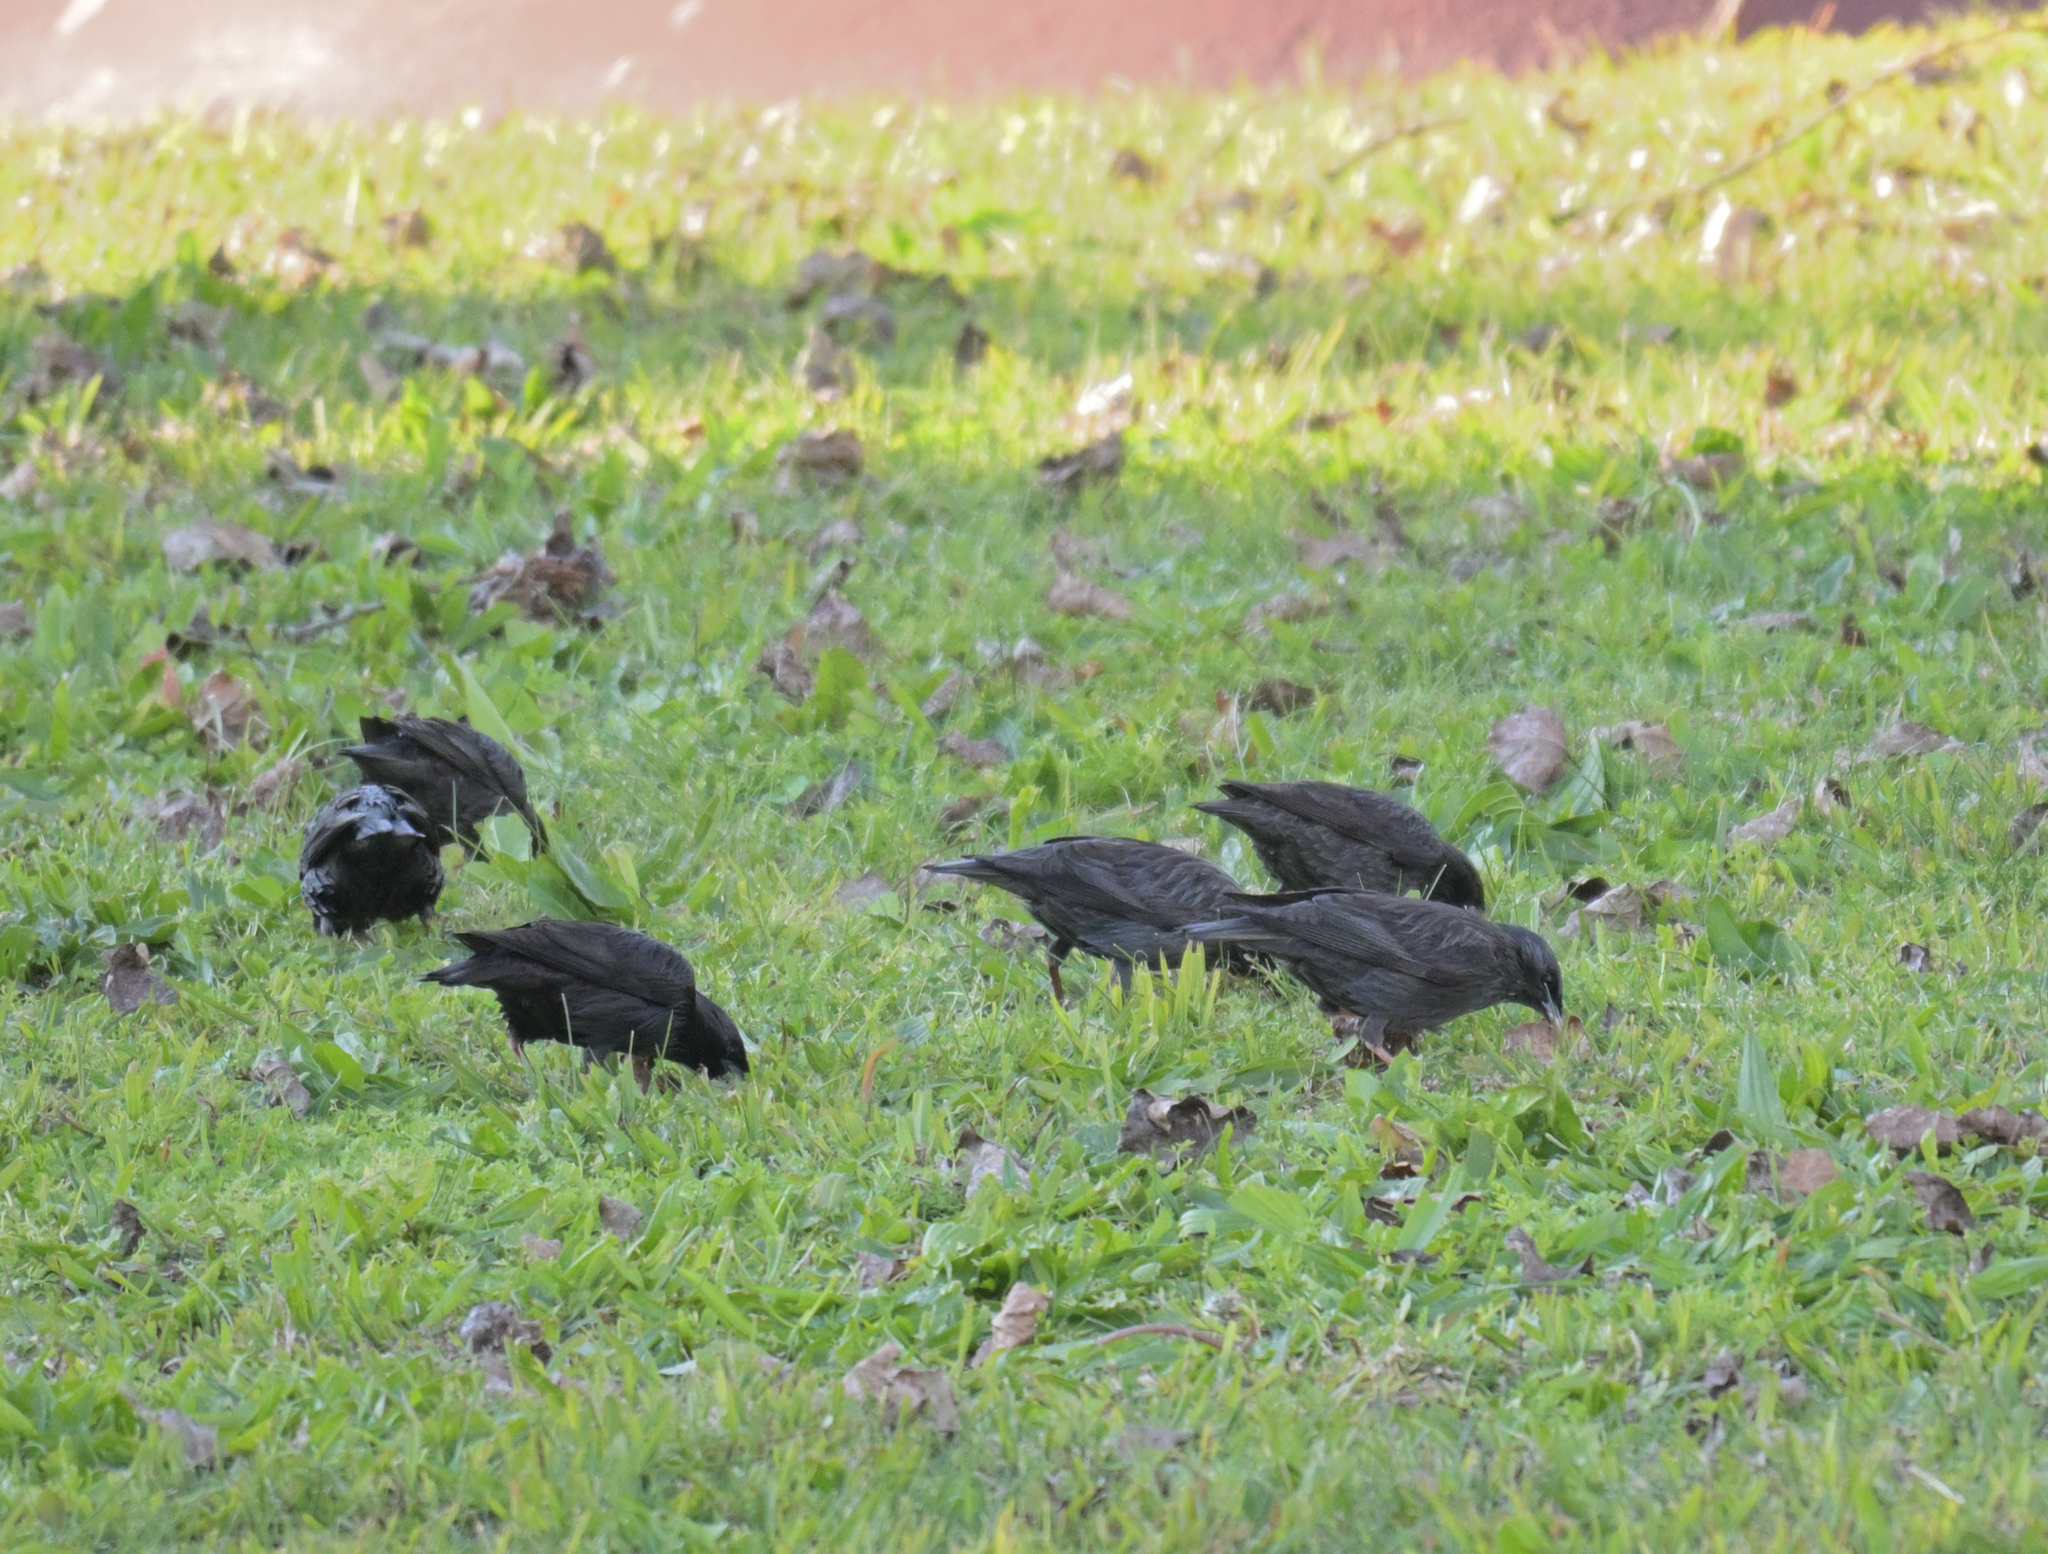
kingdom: Animalia
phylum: Chordata
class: Aves
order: Passeriformes
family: Sturnidae
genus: Sturnus
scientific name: Sturnus unicolor
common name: Spotless starling
